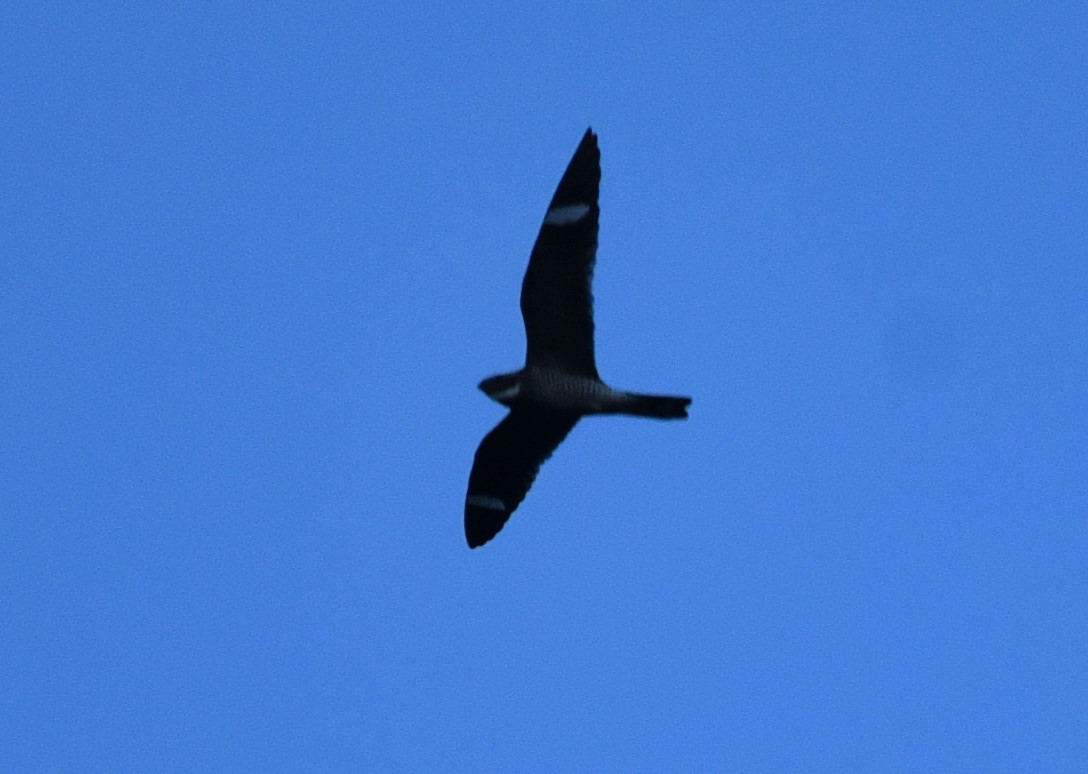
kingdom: Animalia
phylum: Chordata
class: Aves
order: Caprimulgiformes
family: Caprimulgidae
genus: Chordeiles
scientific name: Chordeiles minor
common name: Common nighthawk
